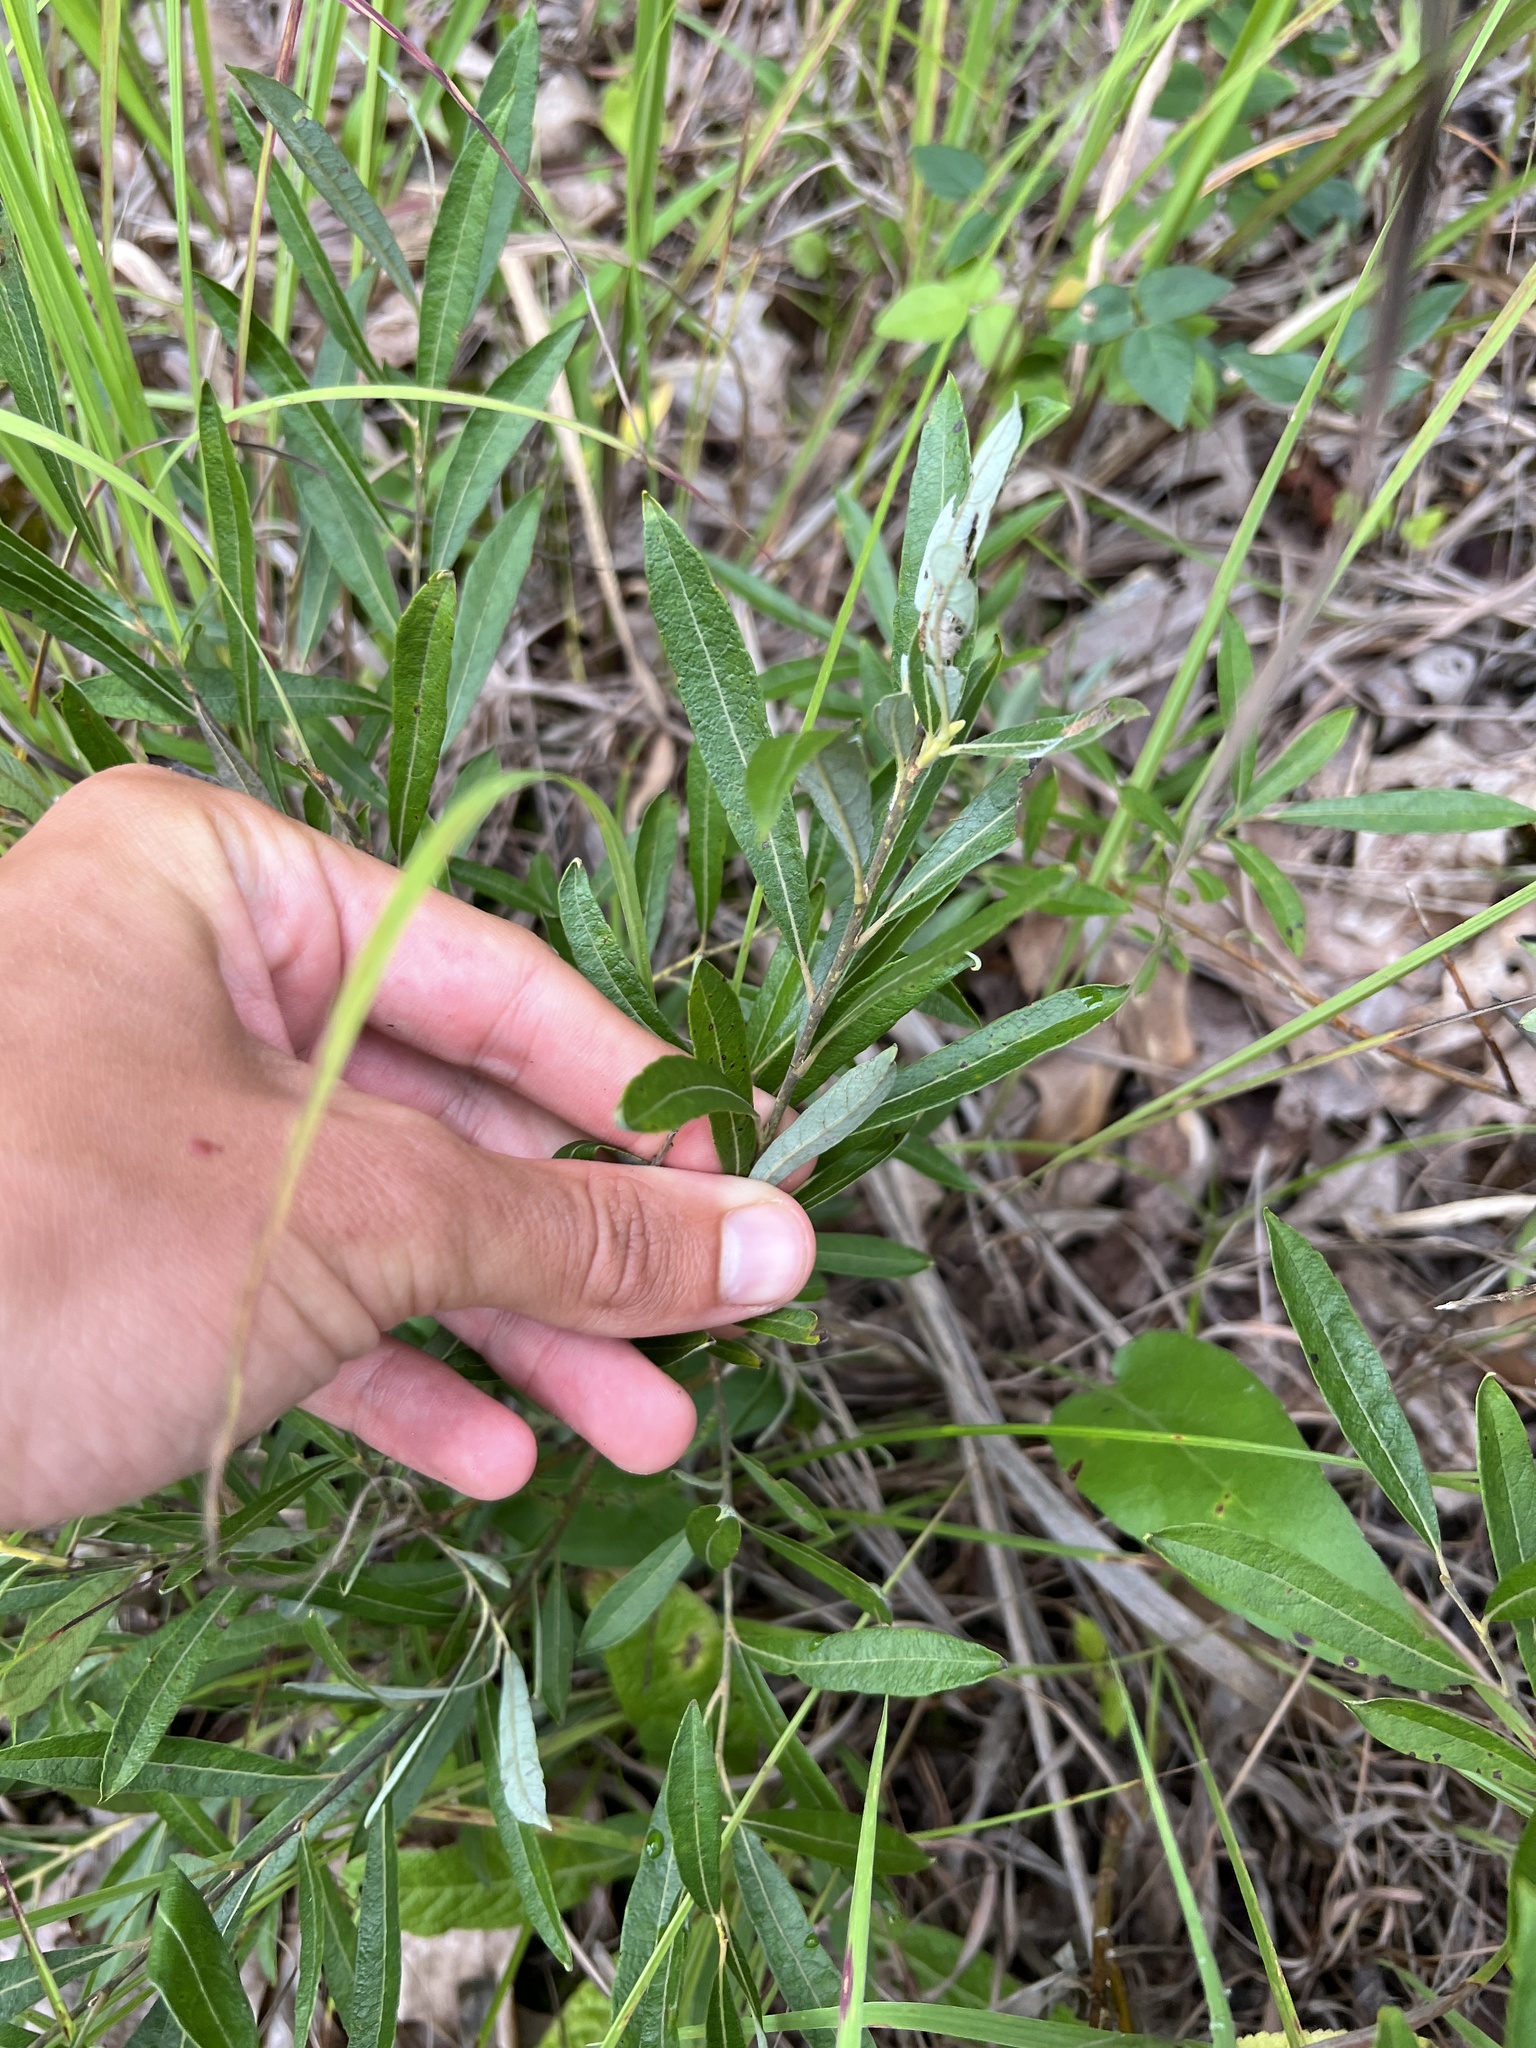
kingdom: Plantae
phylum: Tracheophyta
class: Magnoliopsida
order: Malpighiales
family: Salicaceae
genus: Salix
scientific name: Salix humilis
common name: Prairie willow
